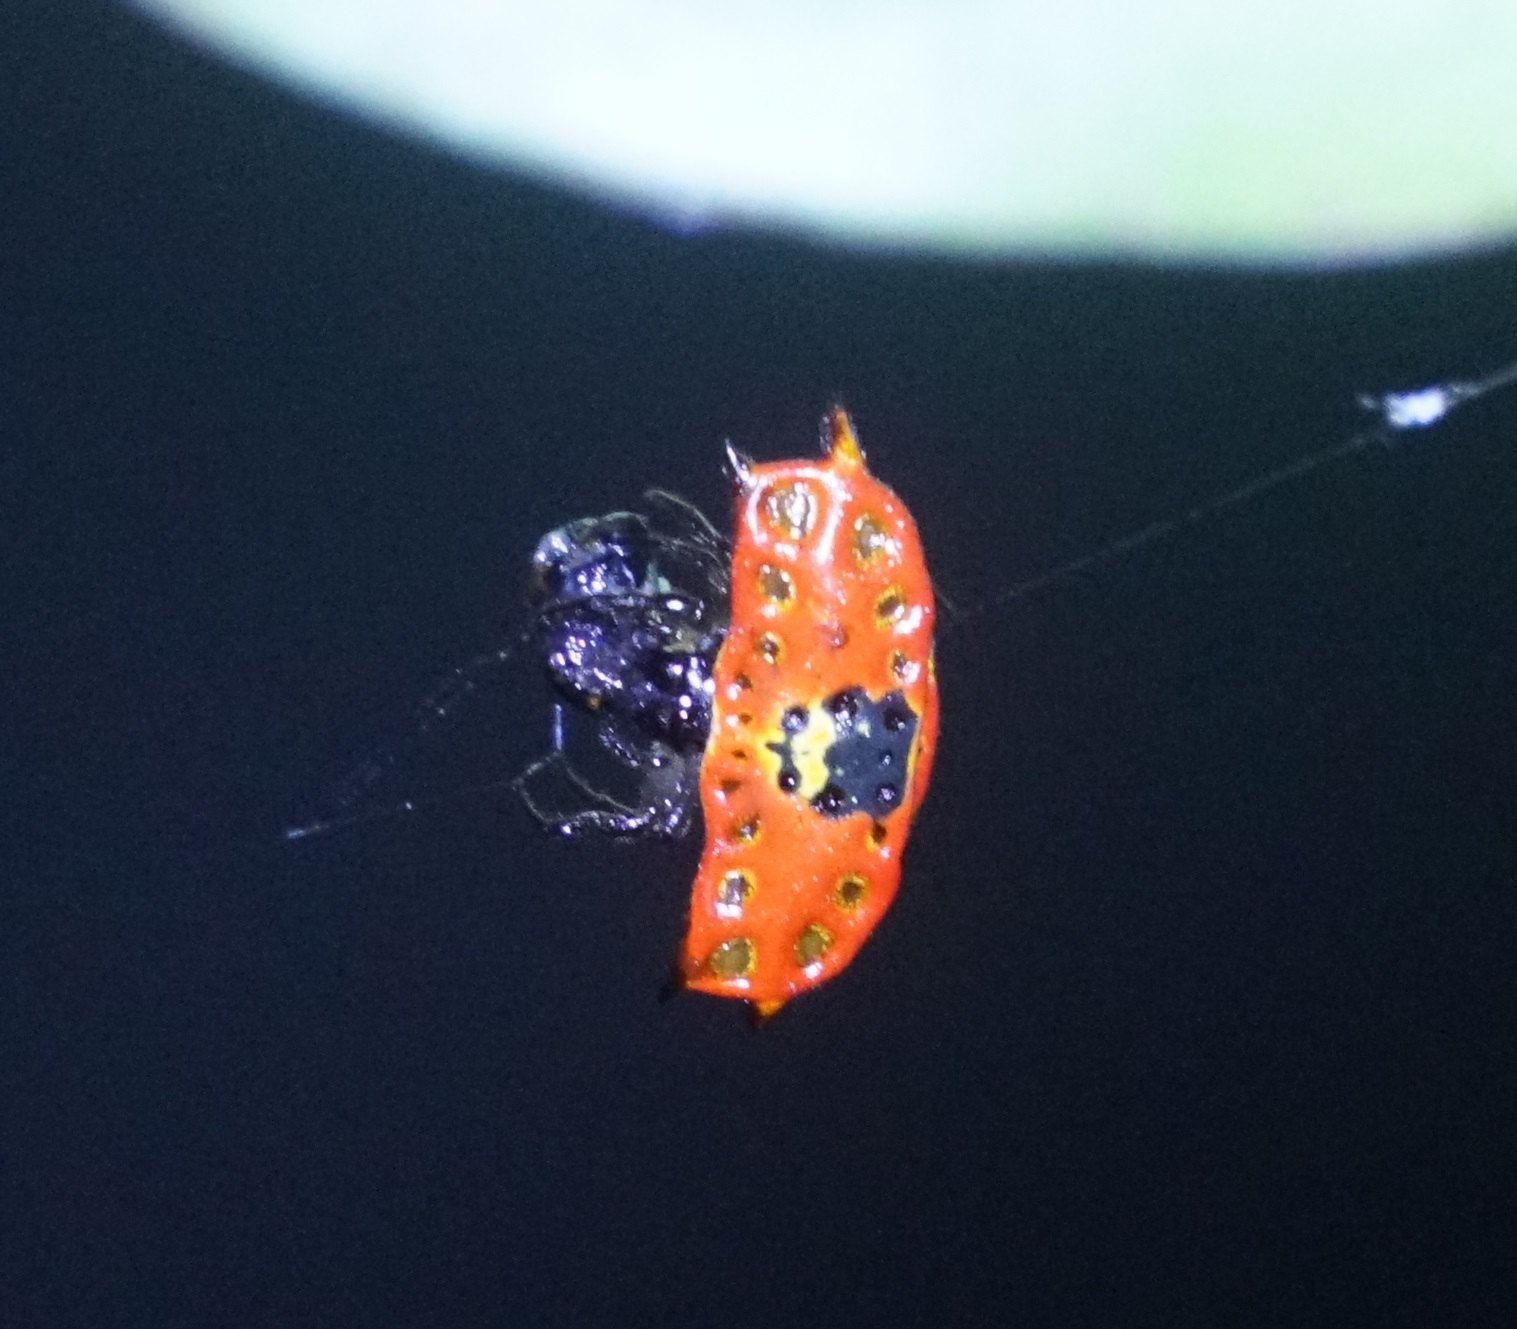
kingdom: Animalia
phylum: Arthropoda
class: Arachnida
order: Araneae
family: Araneidae
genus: Gasteracantha
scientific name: Gasteracantha quadrispinosa
